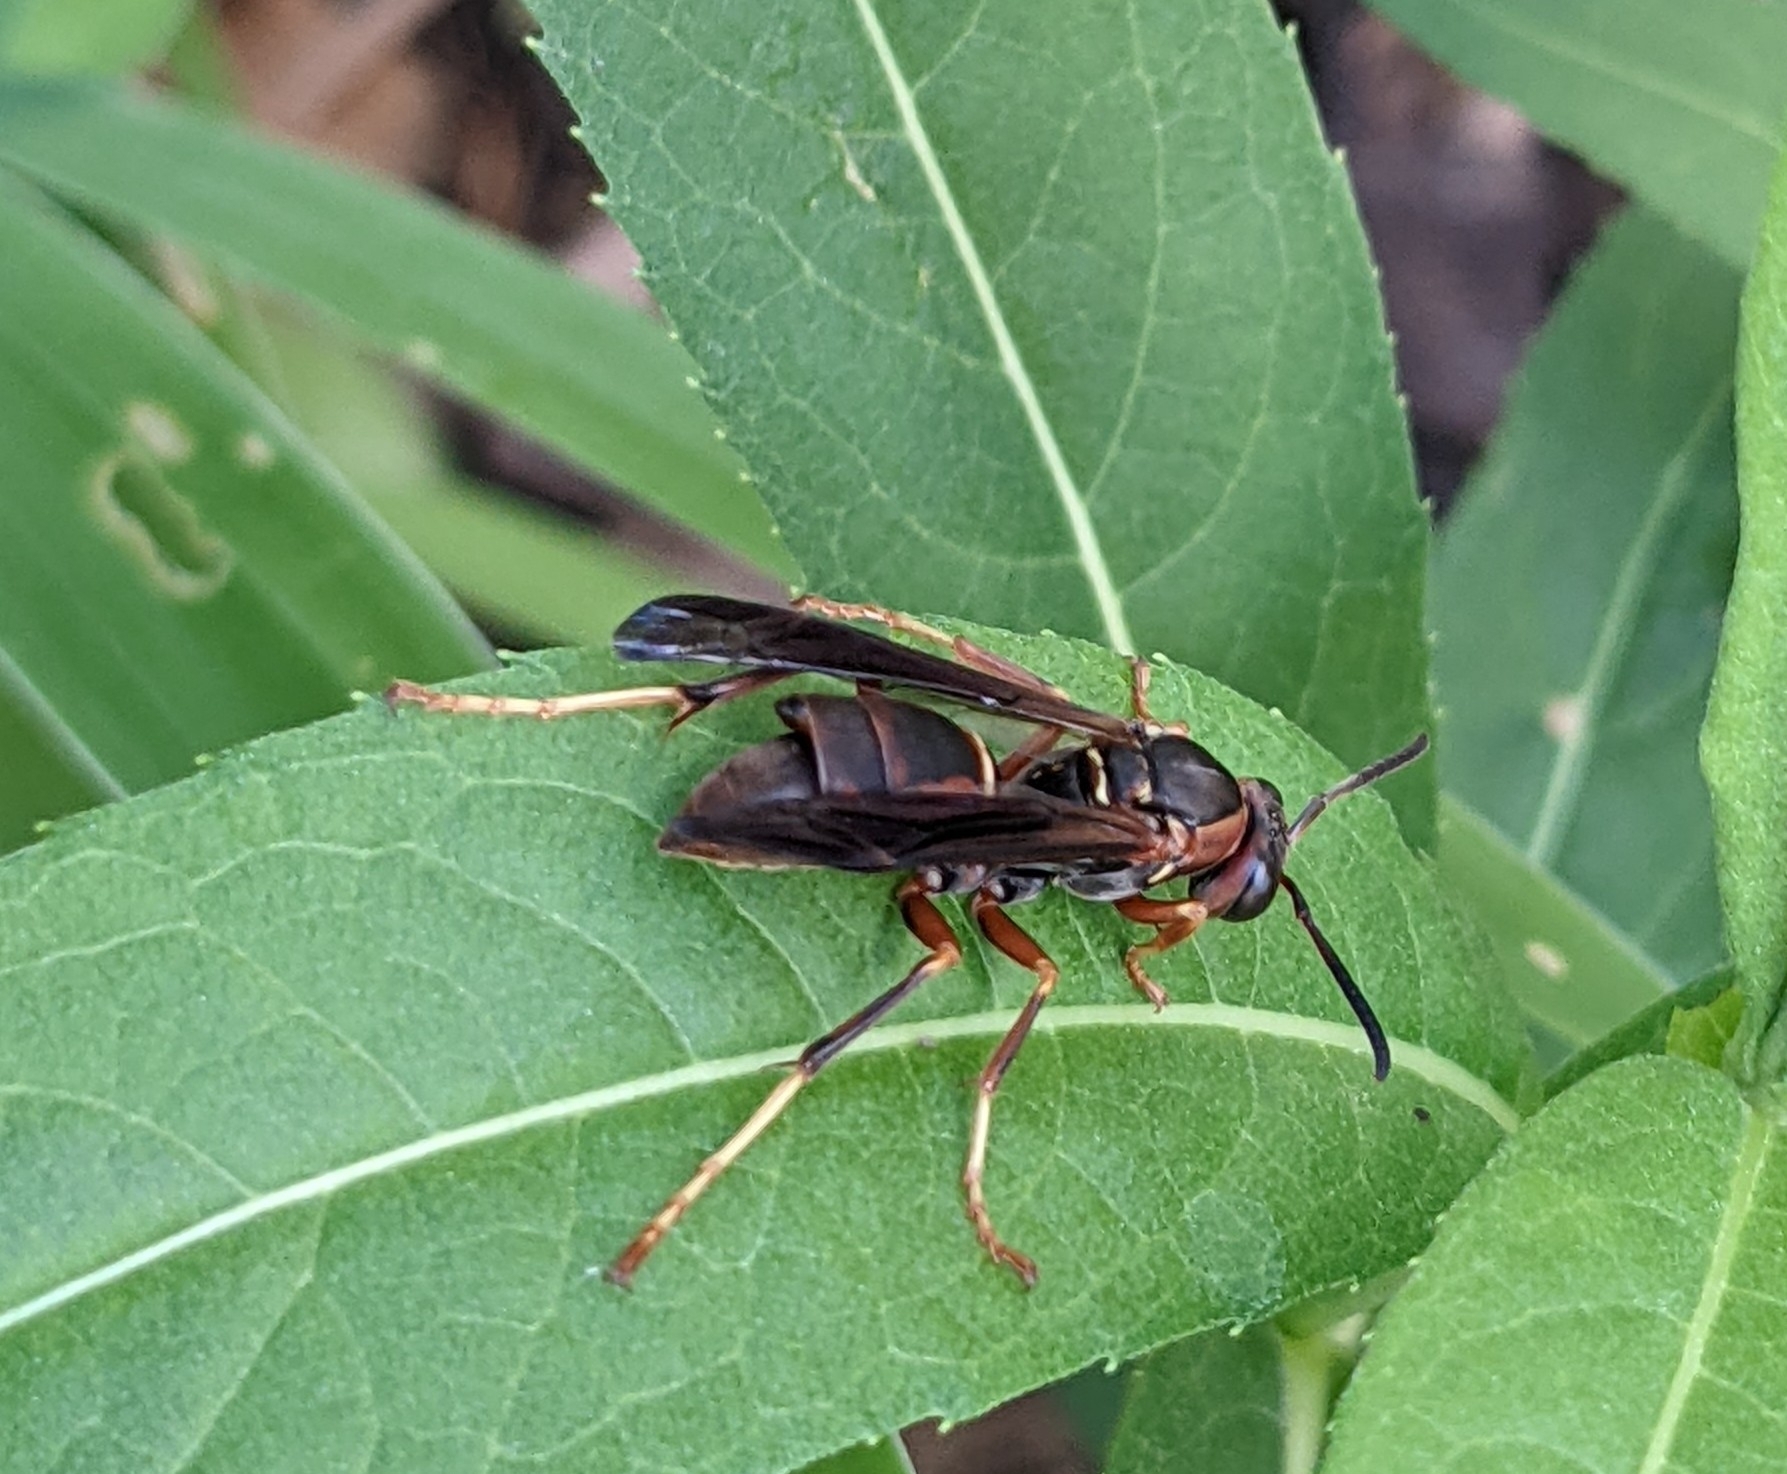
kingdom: Animalia
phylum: Arthropoda
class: Insecta
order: Strepsiptera
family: Xenidae
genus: Xenos
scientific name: Xenos pecki
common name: Twisted wing parasite
